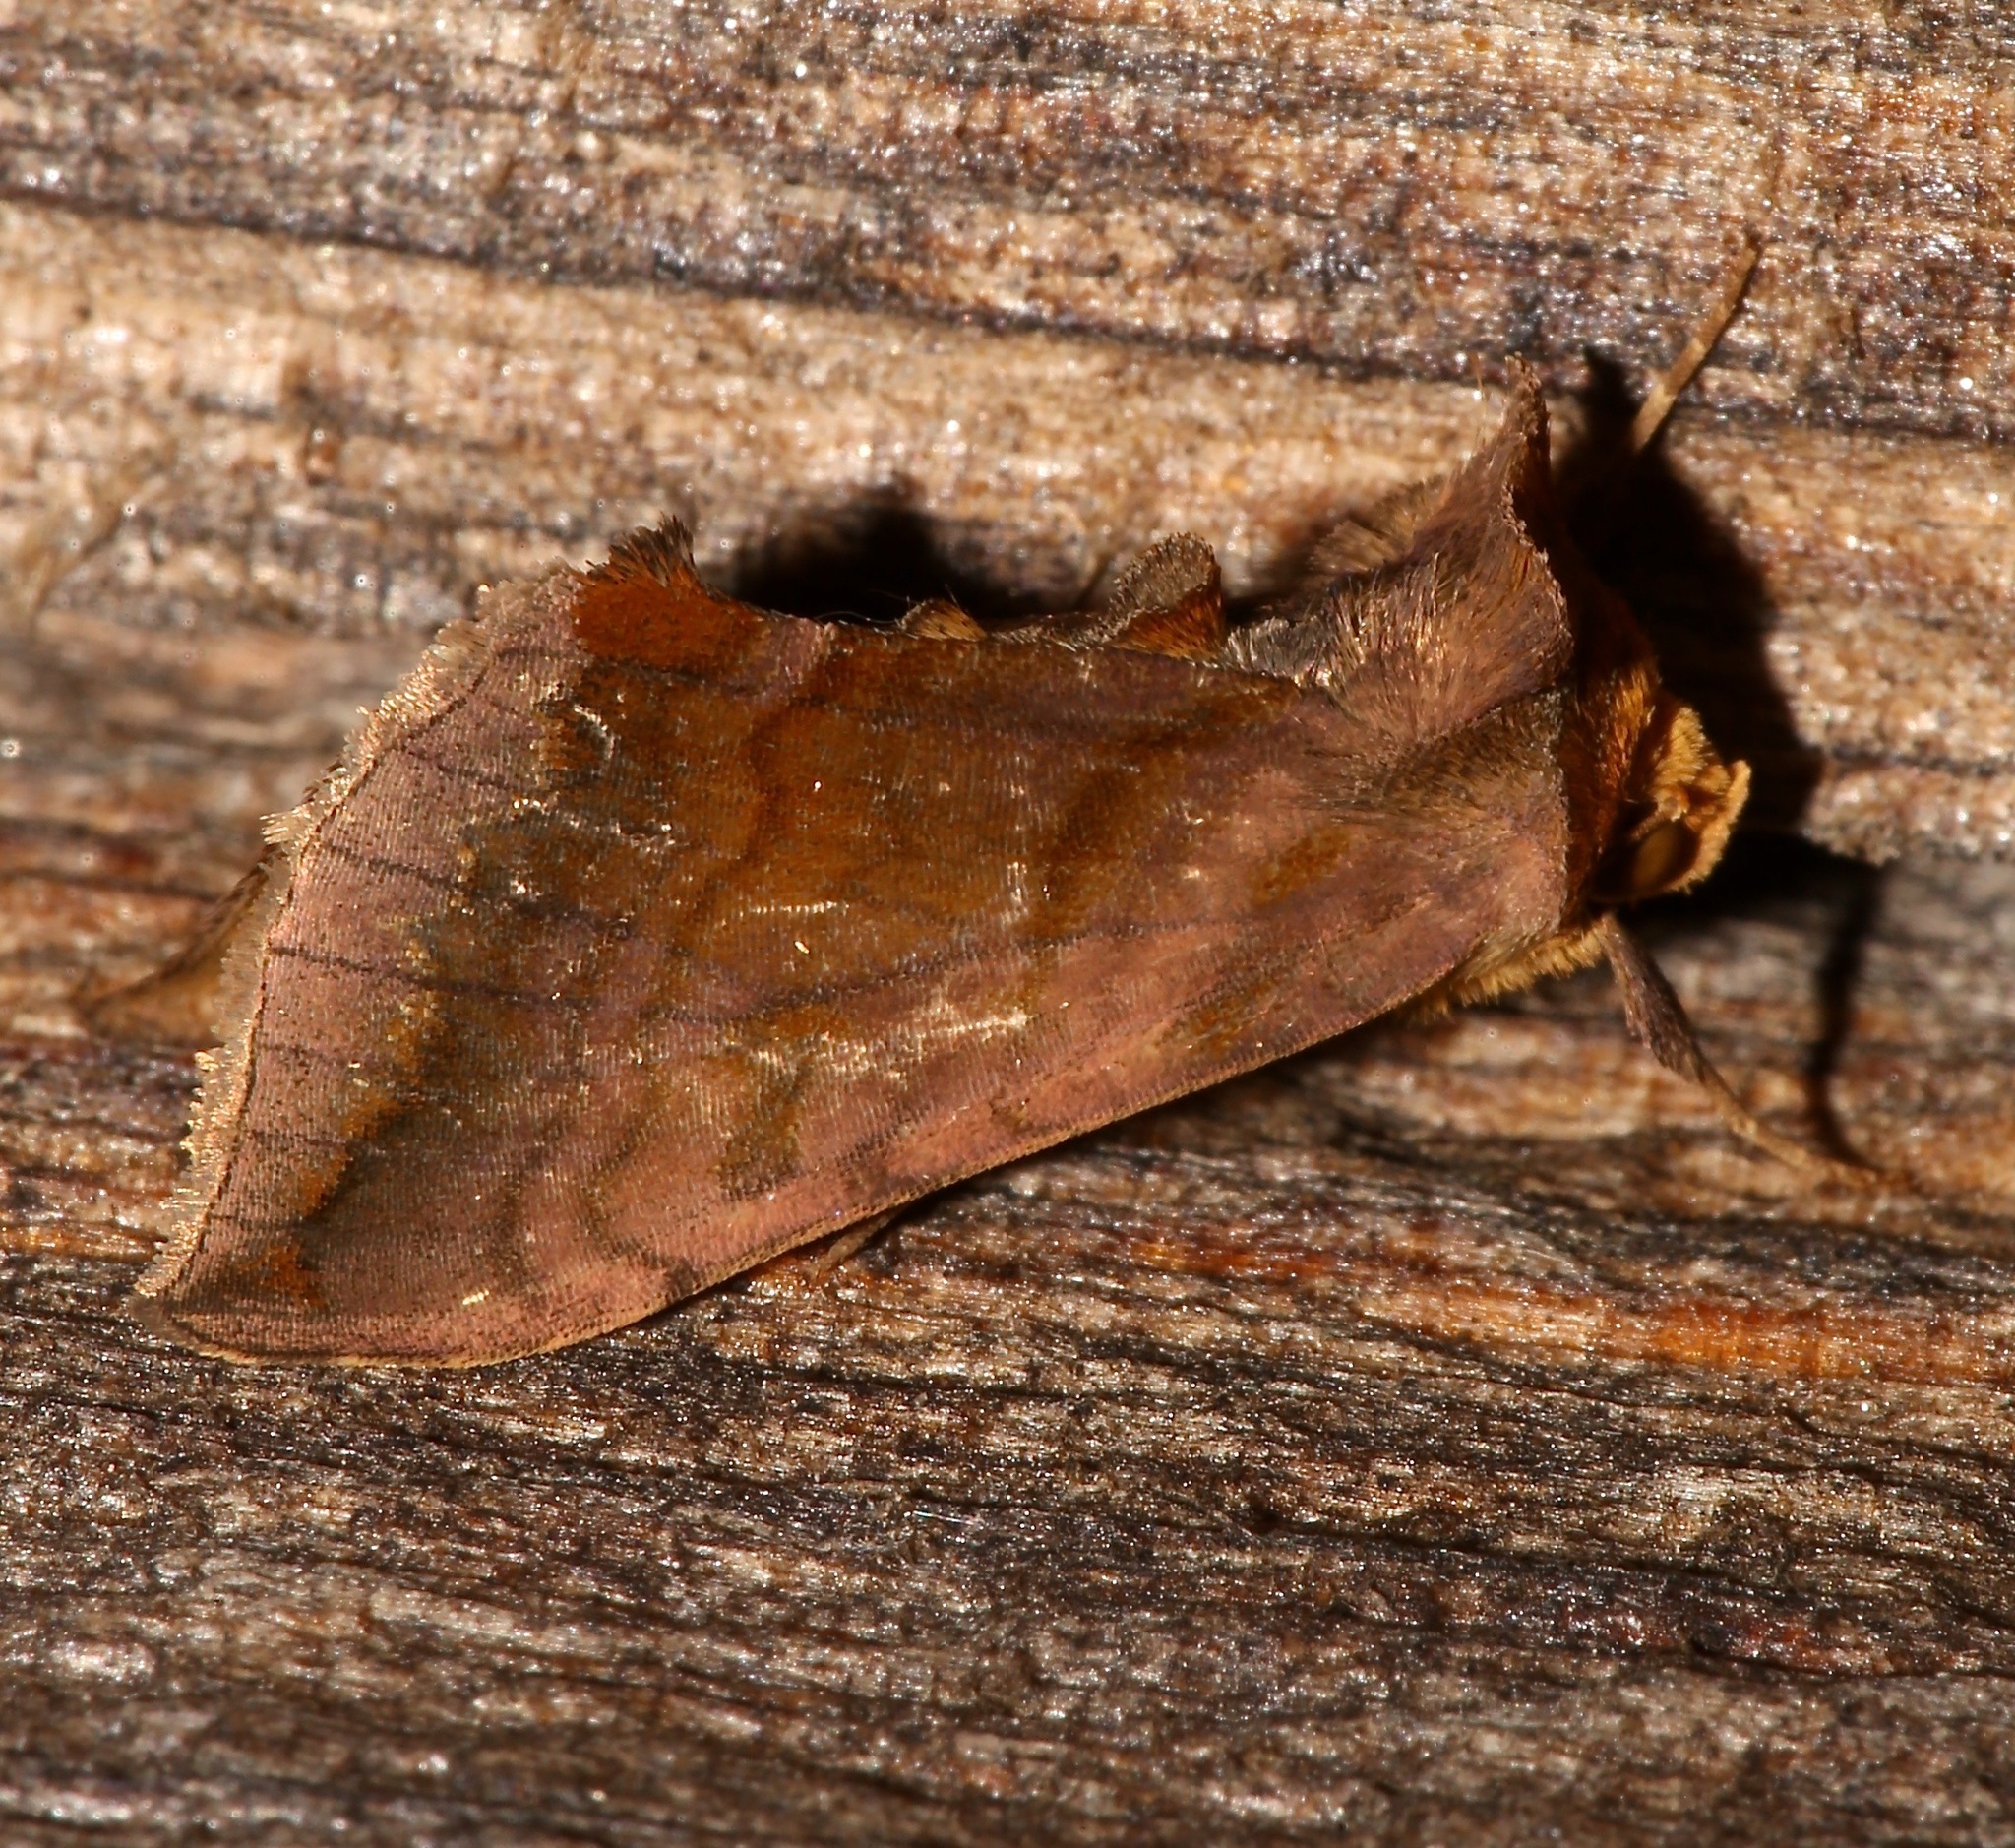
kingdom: Animalia
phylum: Arthropoda
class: Insecta
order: Lepidoptera
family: Noctuidae
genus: Allagrapha
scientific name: Allagrapha aerea
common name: Unspotted looper moth
